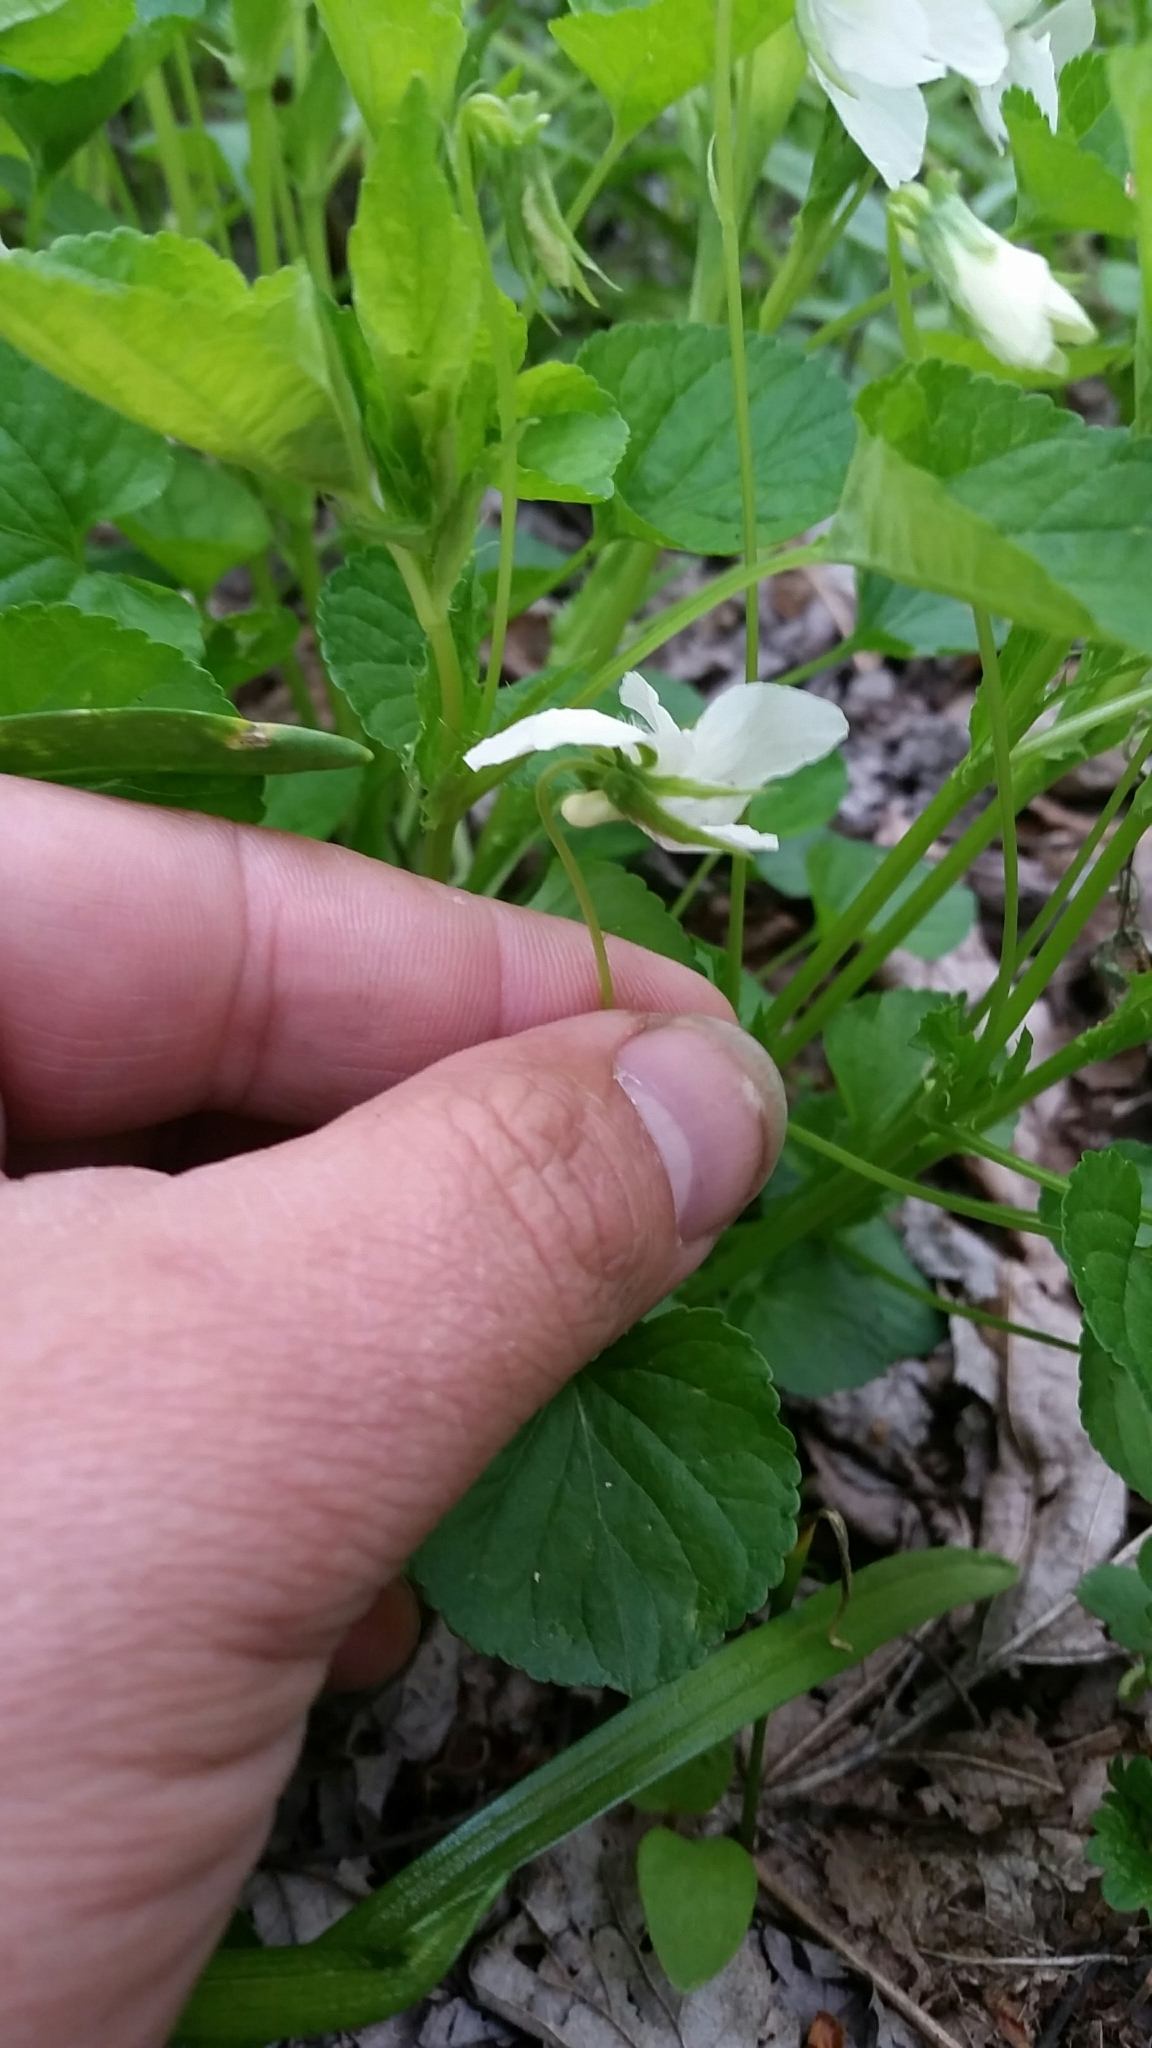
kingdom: Plantae
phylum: Tracheophyta
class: Magnoliopsida
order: Malpighiales
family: Violaceae
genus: Viola
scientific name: Viola striata
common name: Cream violet
